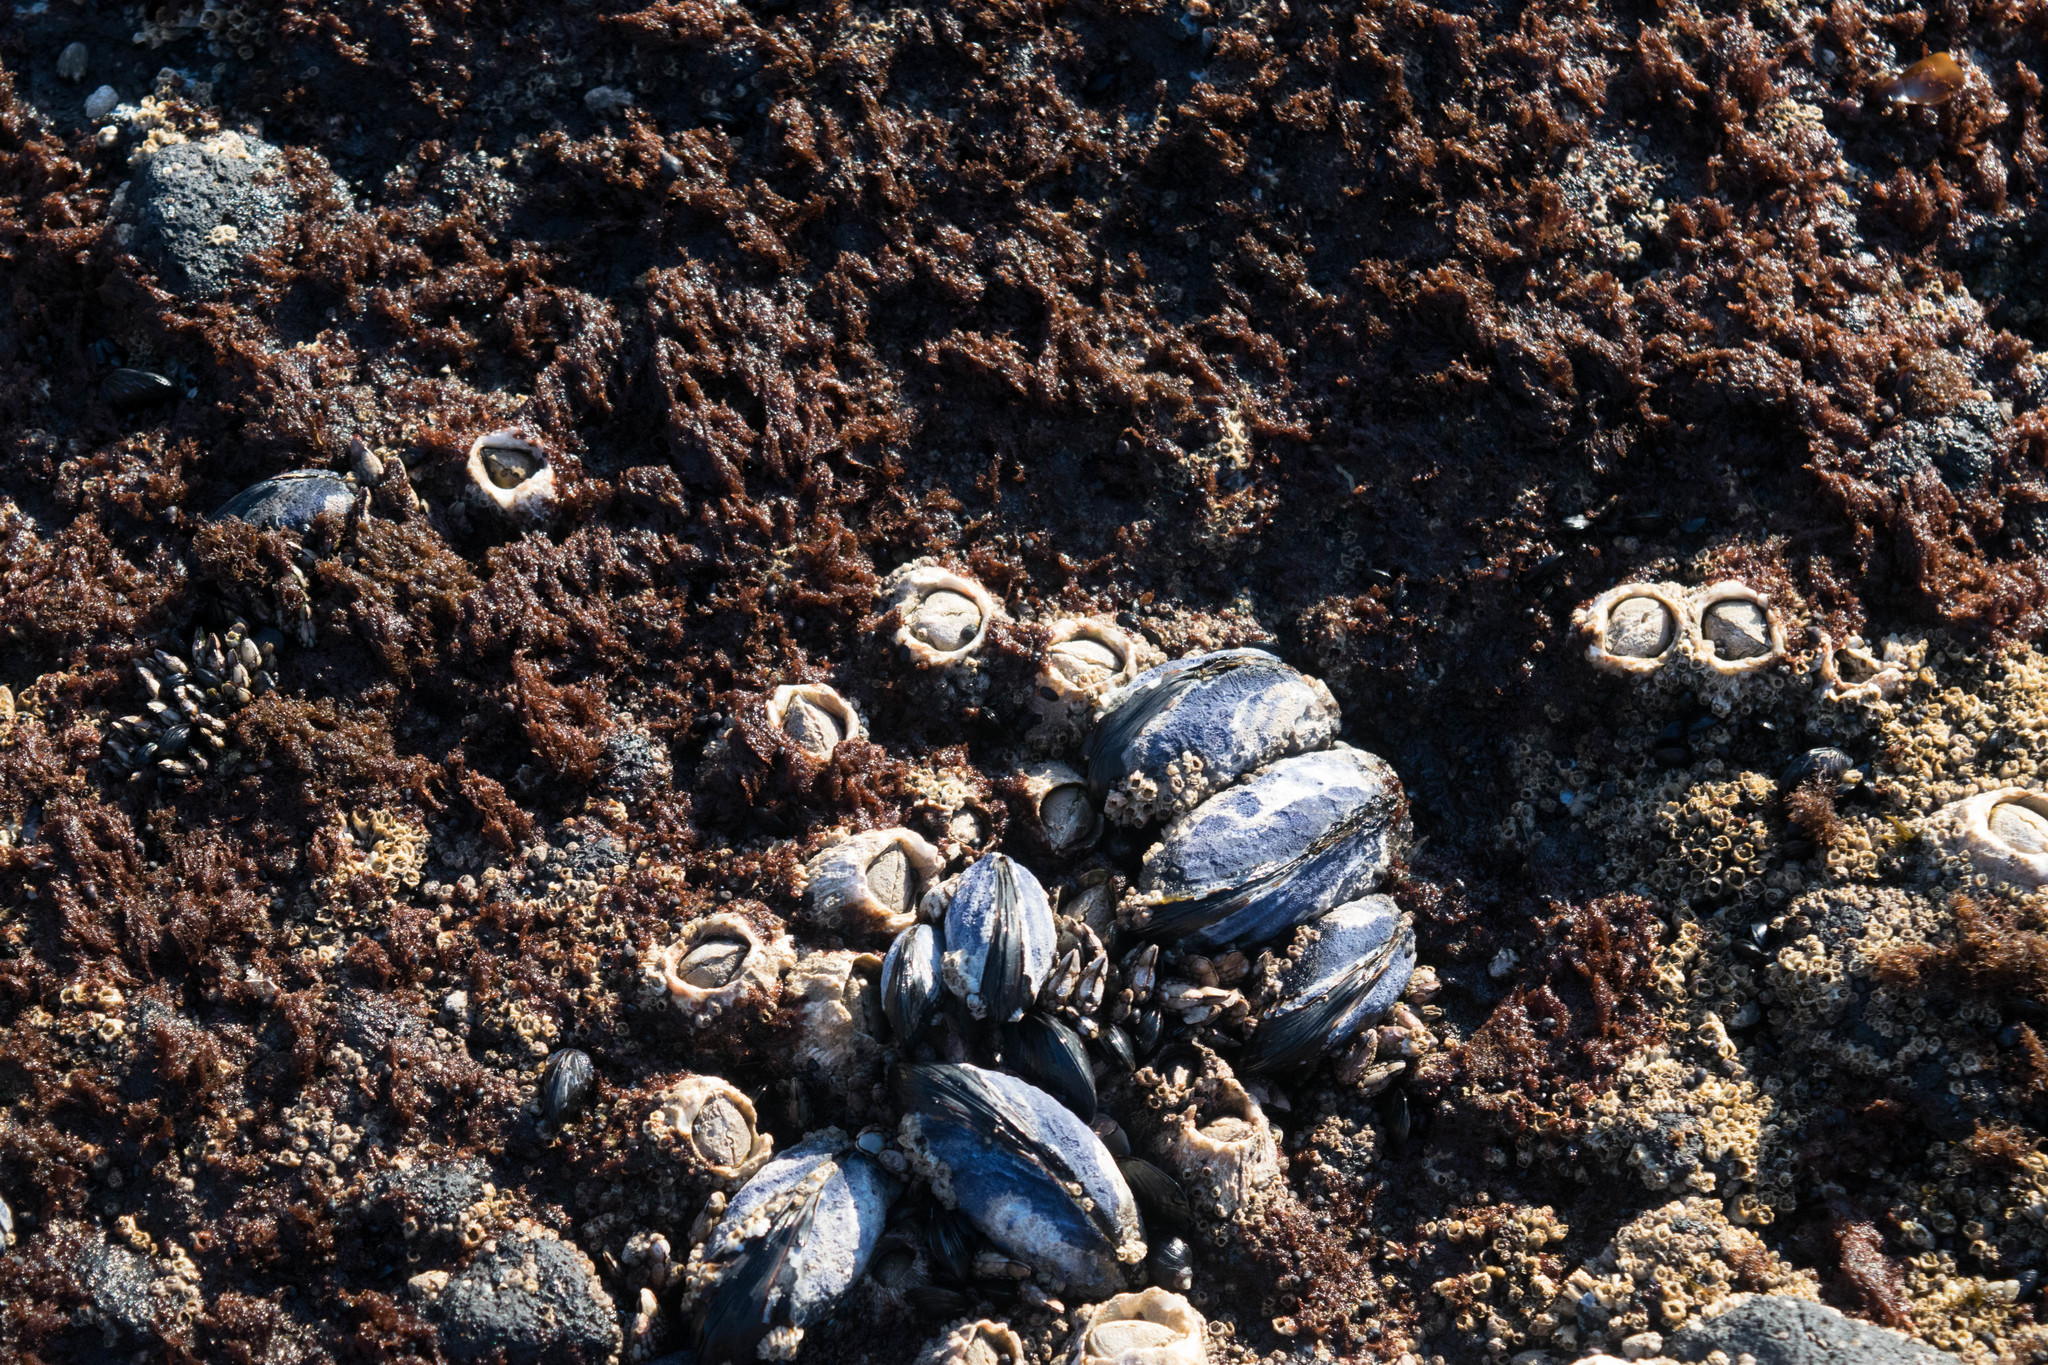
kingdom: Animalia
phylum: Arthropoda
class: Maxillopoda
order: Sessilia
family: Archaeobalanidae
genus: Semibalanus
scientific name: Semibalanus cariosus
